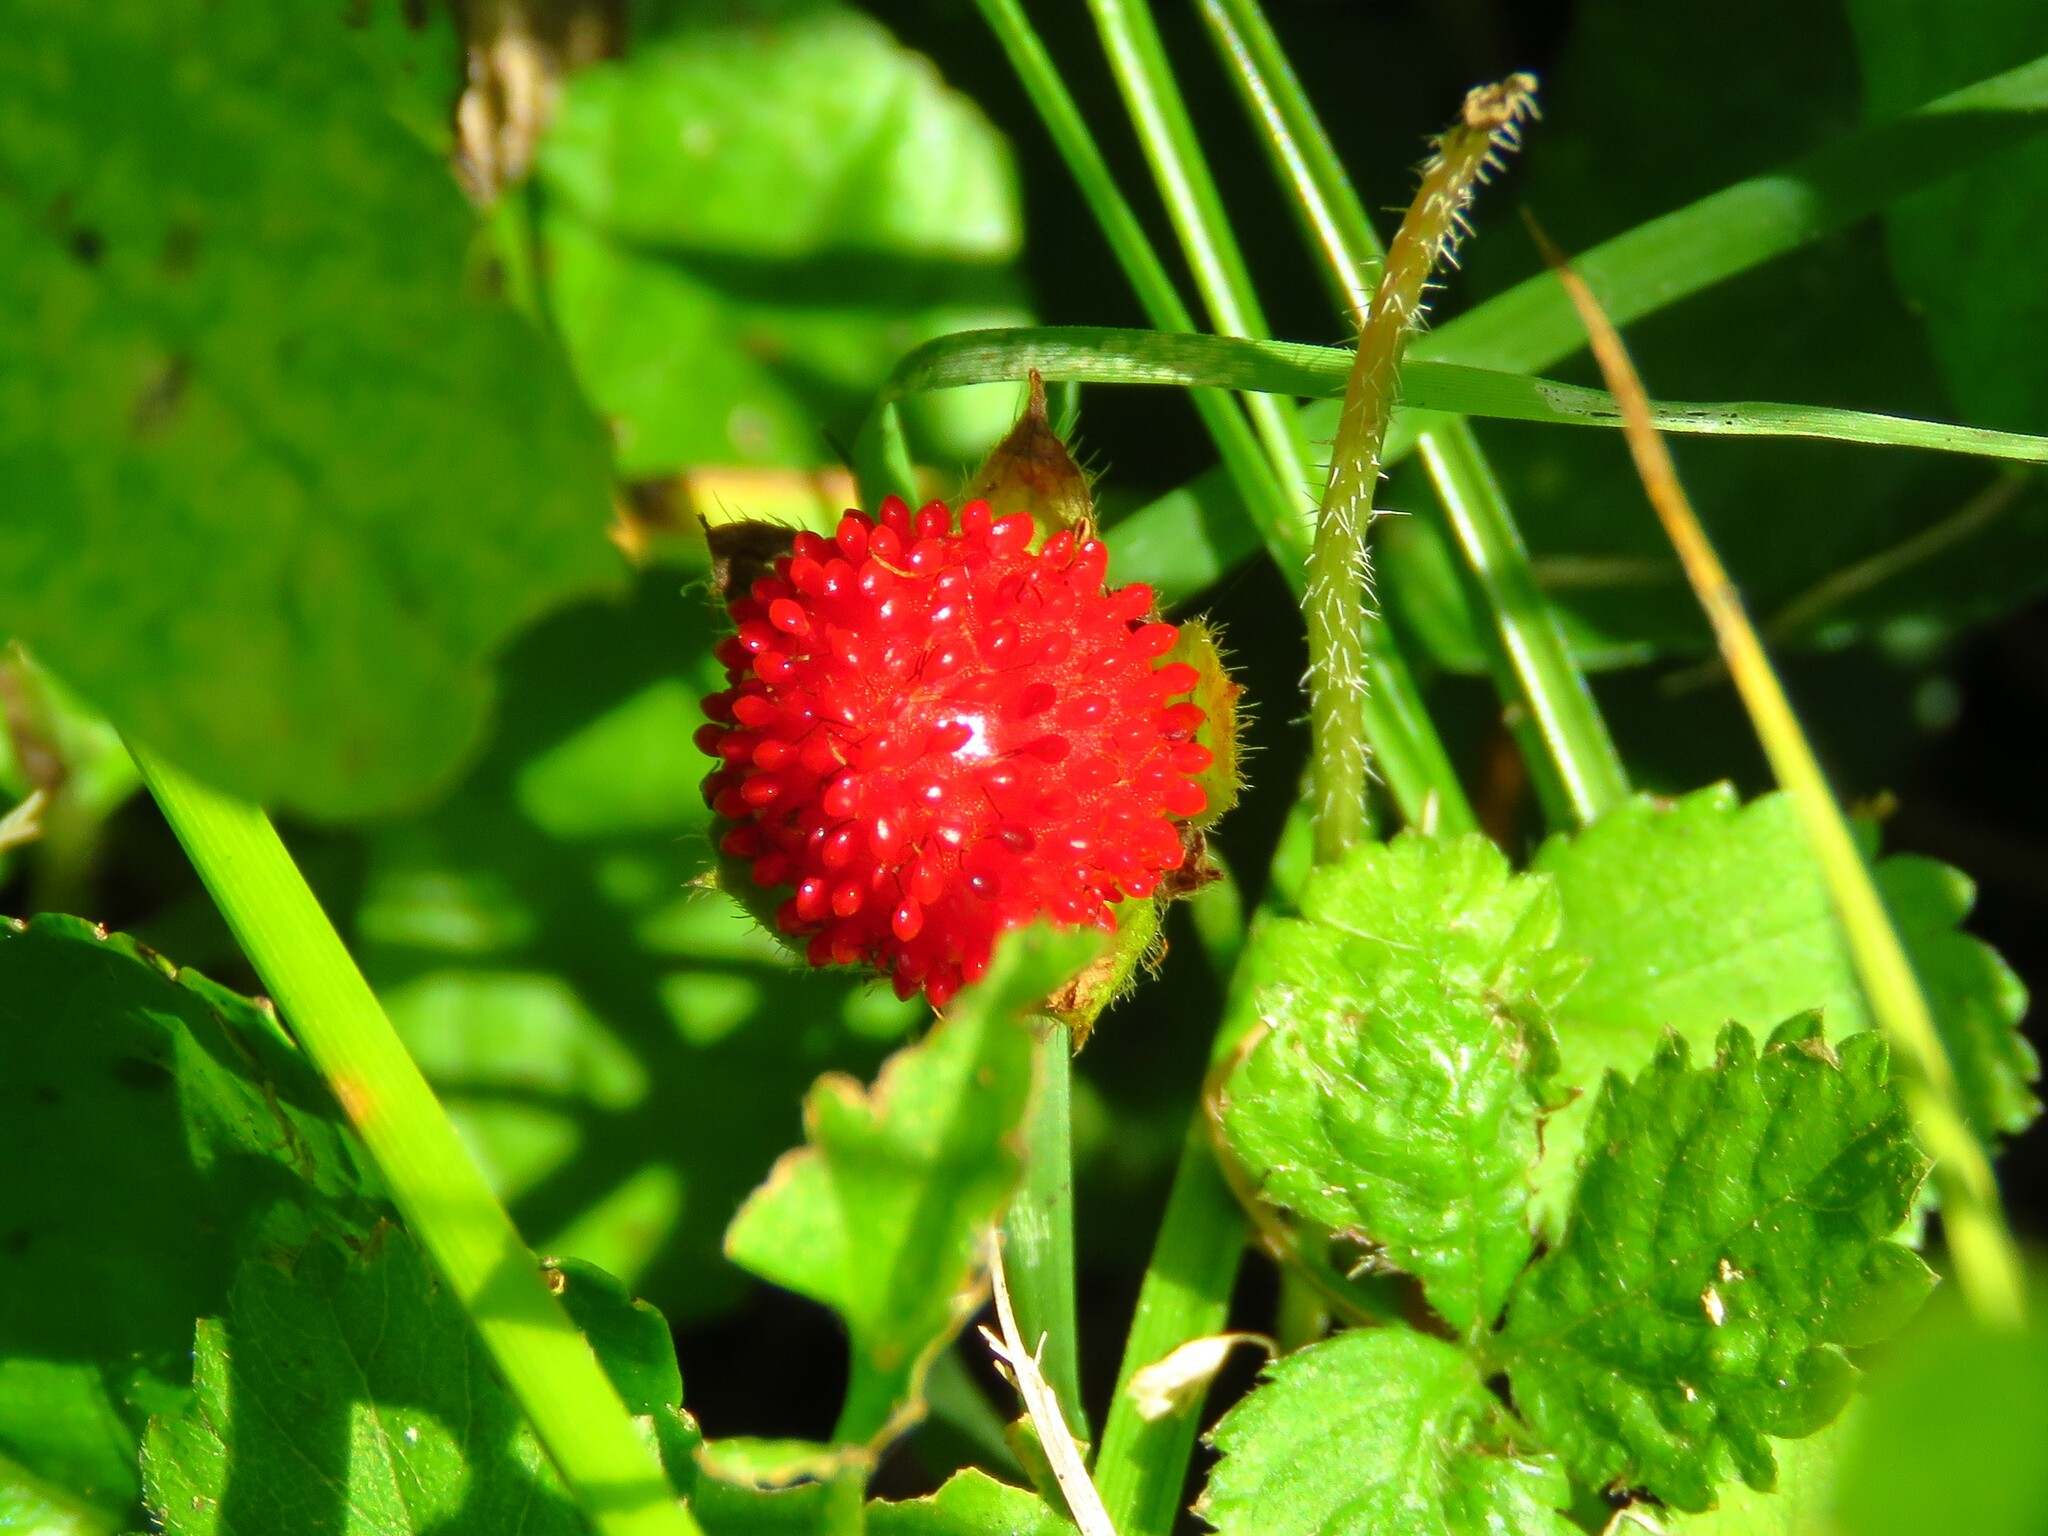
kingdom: Plantae
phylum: Tracheophyta
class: Magnoliopsida
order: Rosales
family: Rosaceae
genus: Potentilla
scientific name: Potentilla indica
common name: Yellow-flowered strawberry
